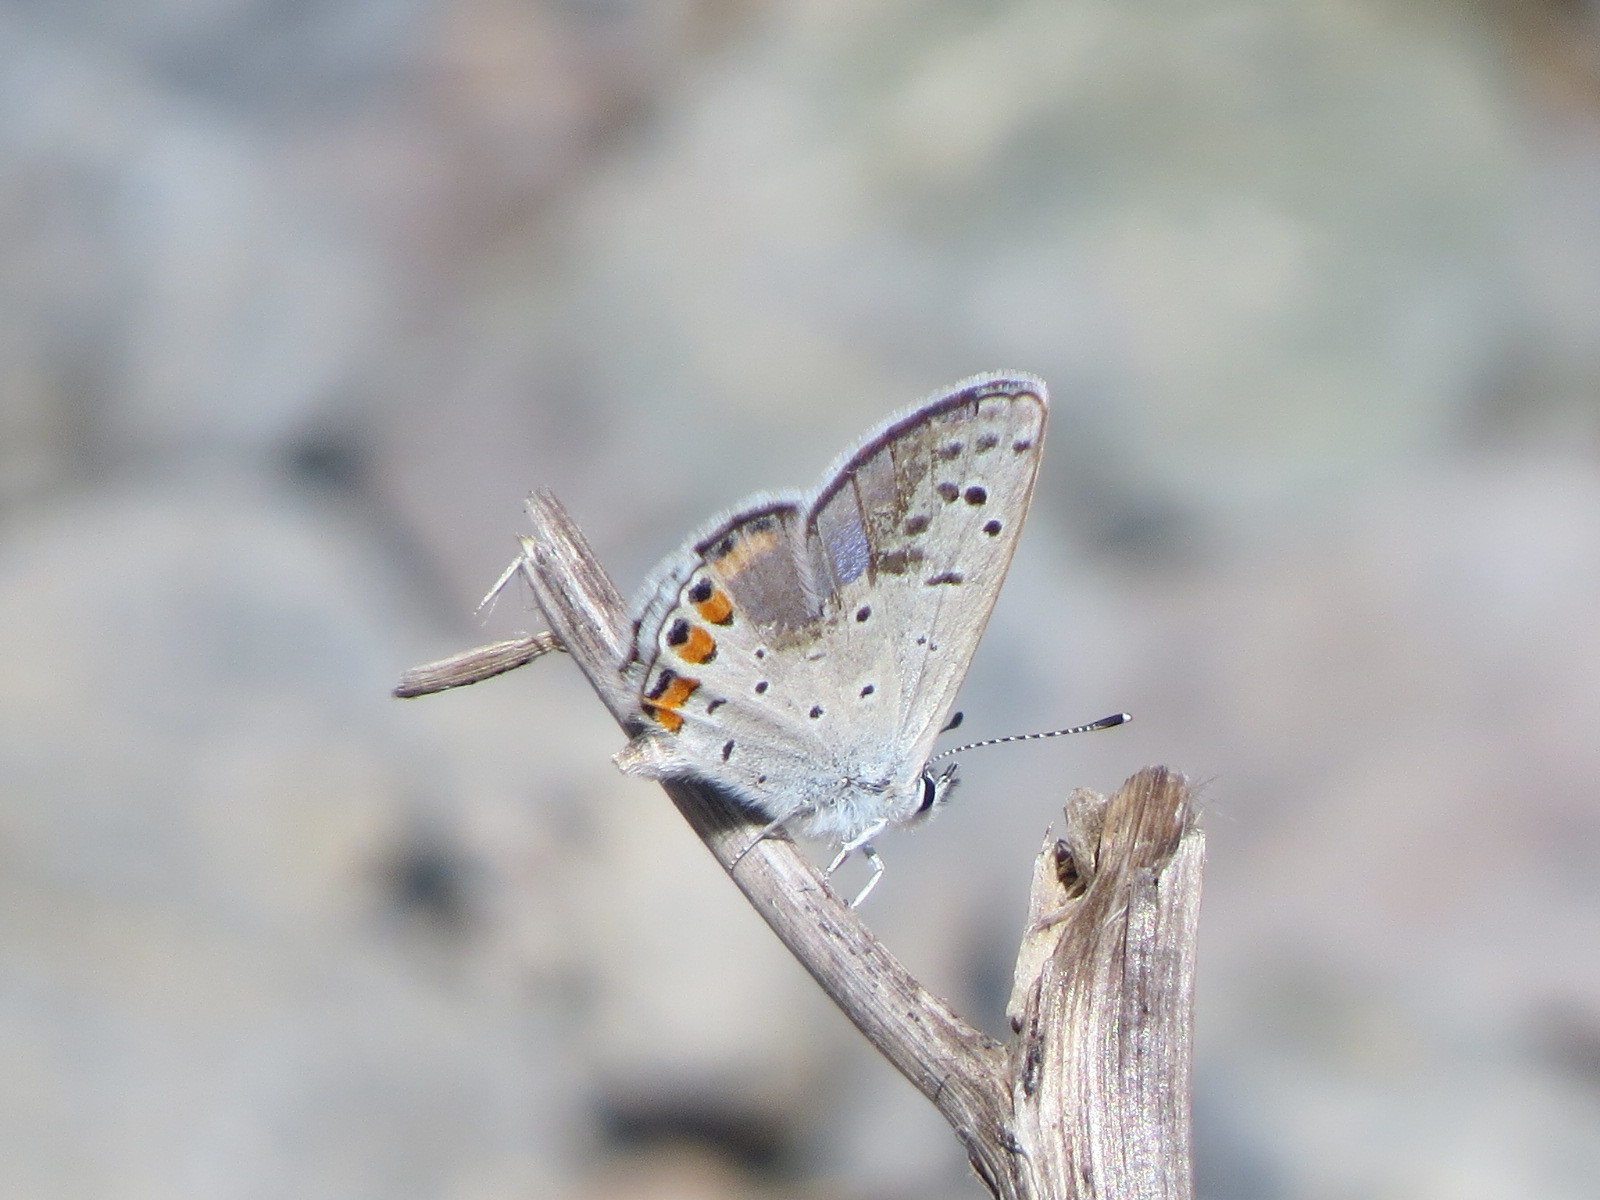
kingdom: Animalia
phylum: Arthropoda
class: Insecta
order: Lepidoptera
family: Lycaenidae
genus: Icaricia
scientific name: Icaricia acmon
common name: Acmon blue
